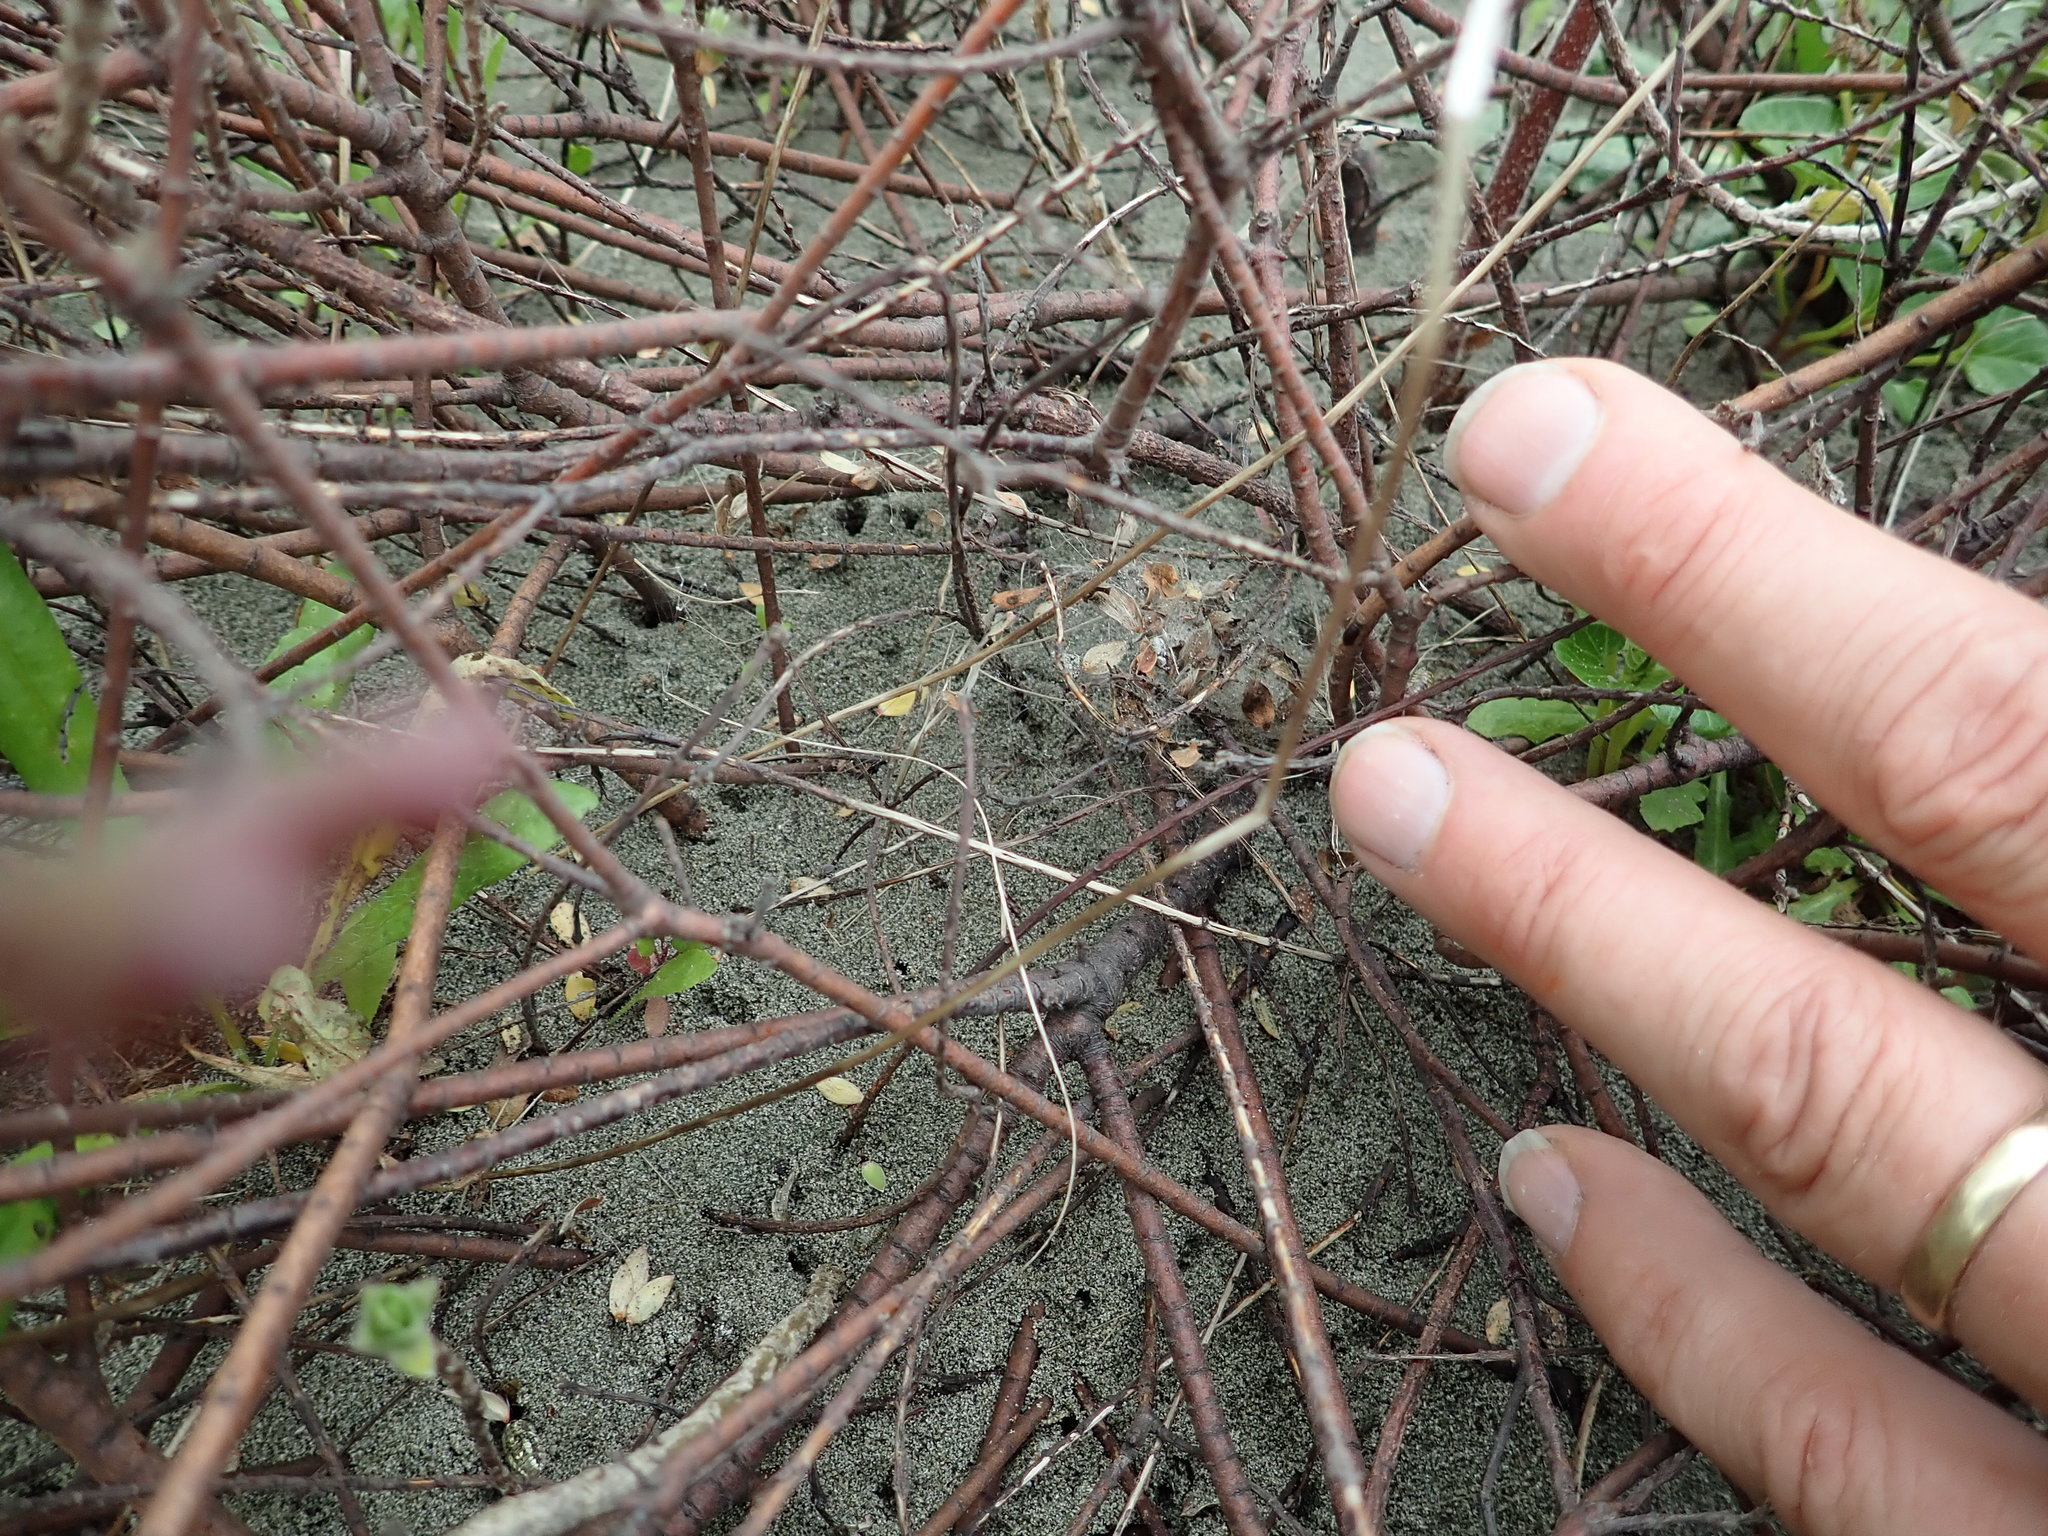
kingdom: Animalia
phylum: Arthropoda
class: Arachnida
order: Araneae
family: Theridiidae
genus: Latrodectus
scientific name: Latrodectus katipo
